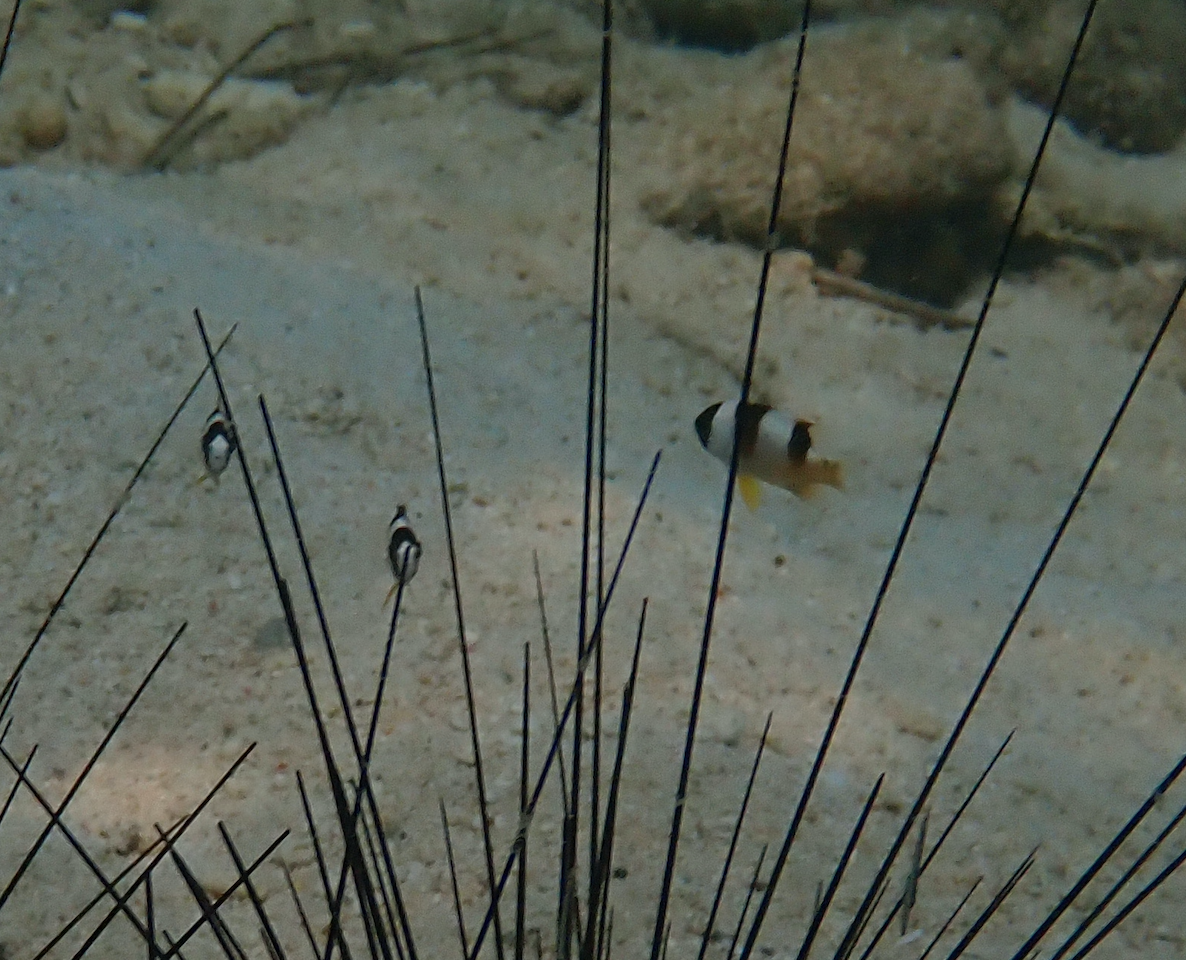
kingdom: Animalia
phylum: Chordata
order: Perciformes
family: Pomacentridae
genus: Amblypomacentrus
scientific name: Amblypomacentrus breviceps
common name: Black-banded demoiselle
